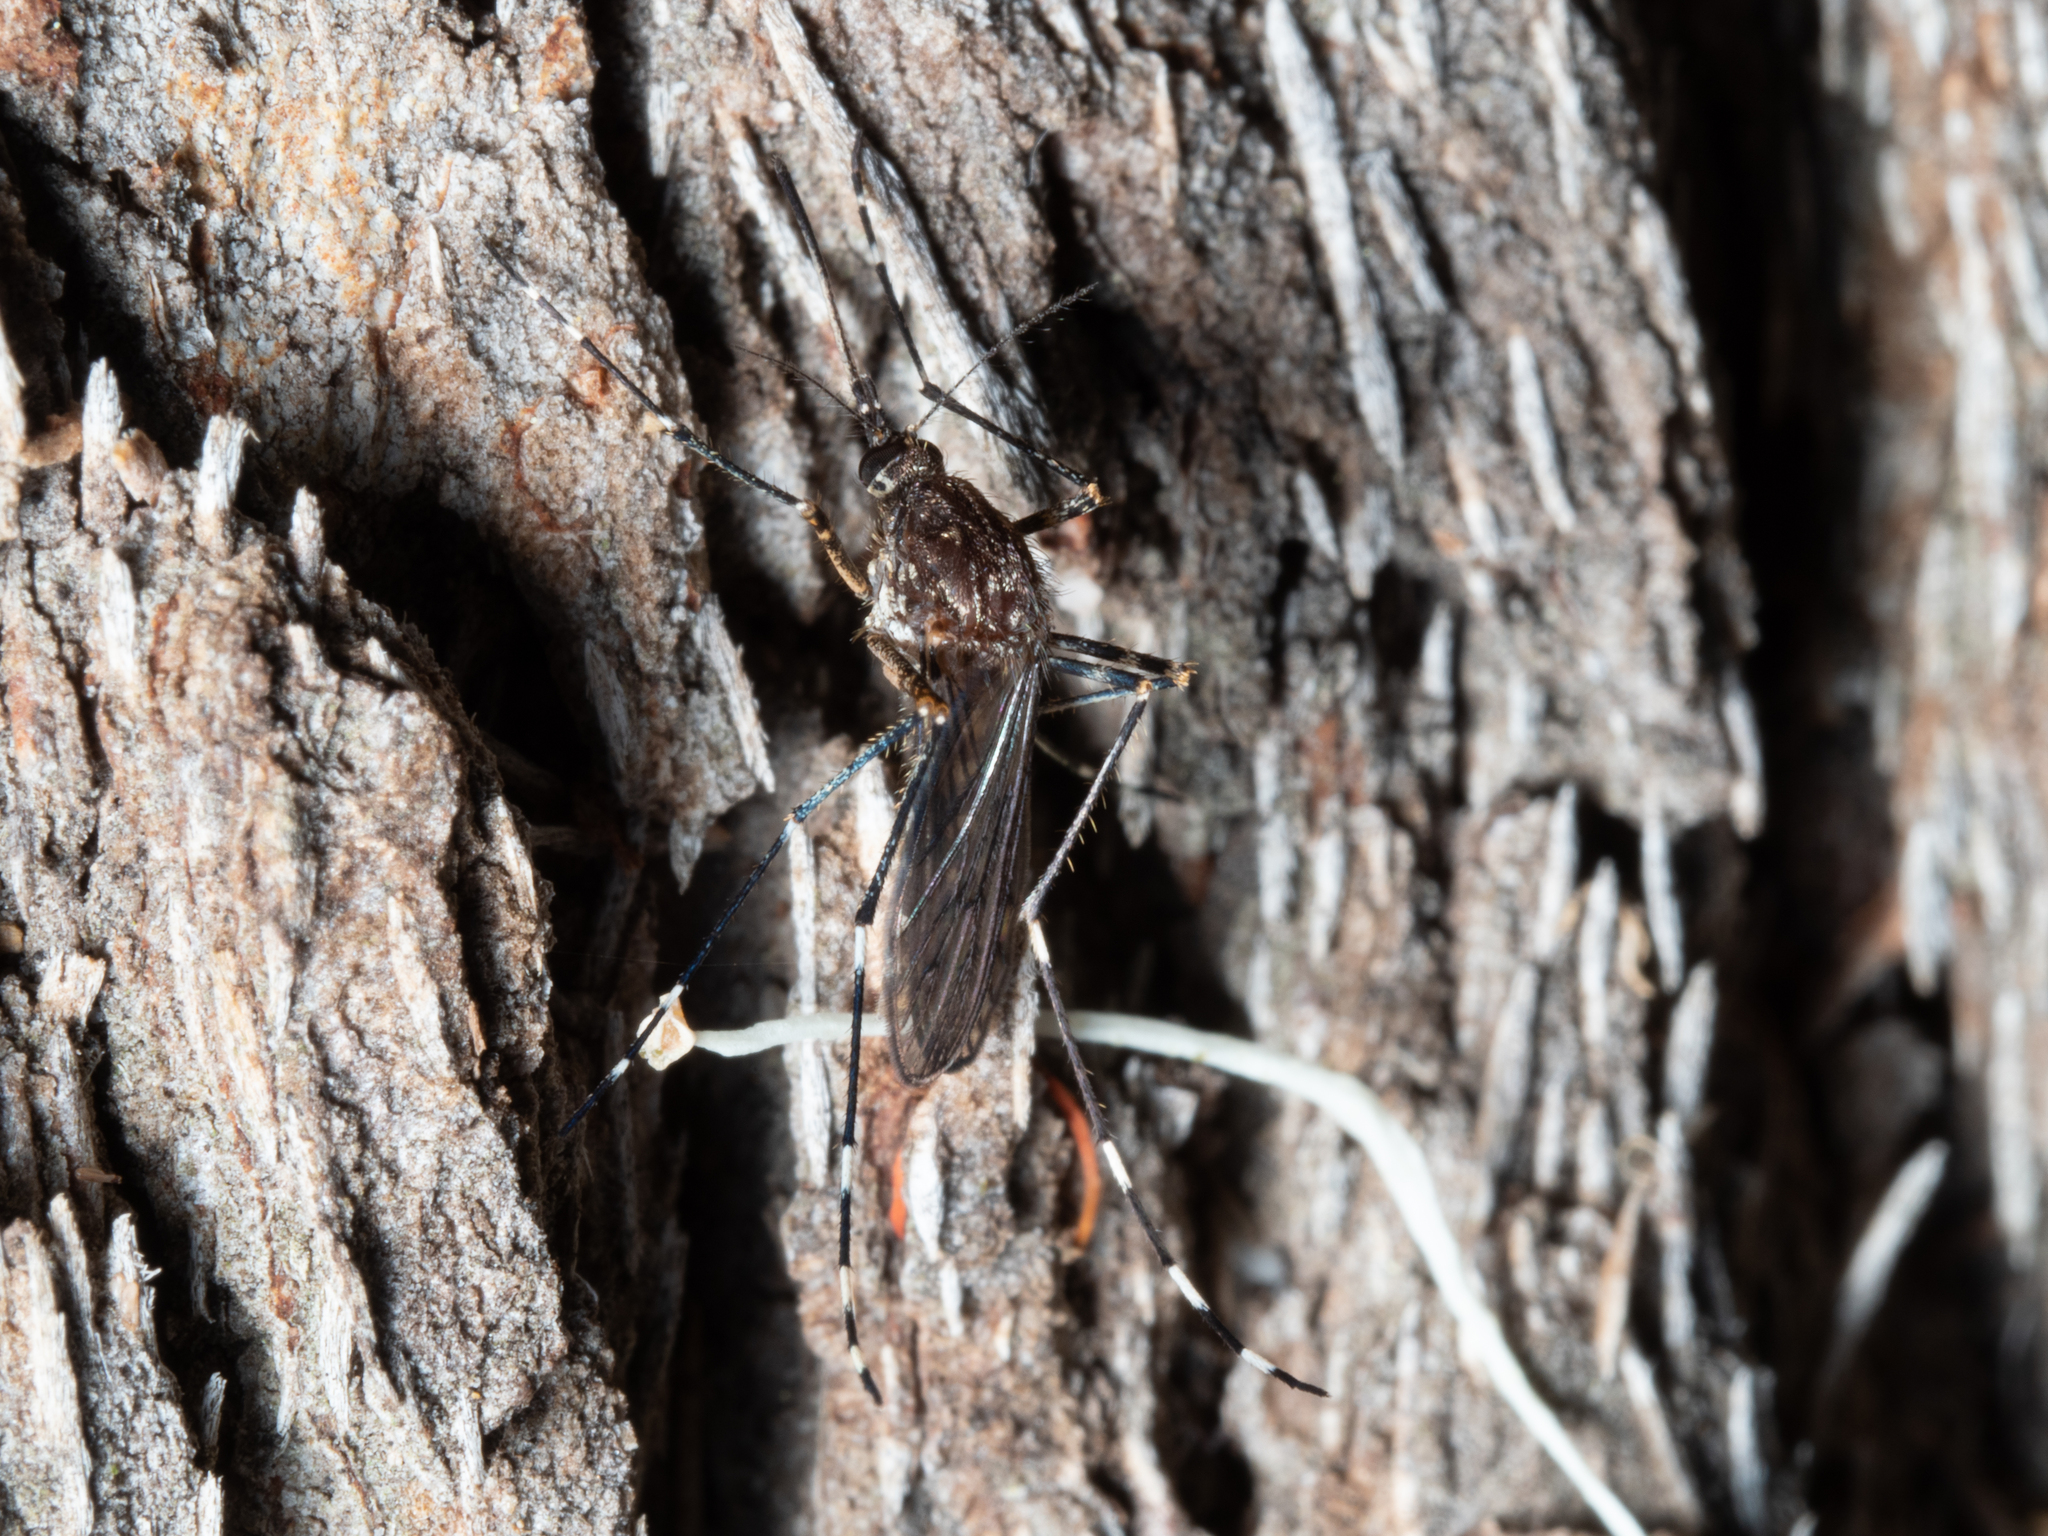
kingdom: Animalia
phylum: Arthropoda
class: Insecta
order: Diptera
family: Culicidae
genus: Aedes
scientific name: Aedes alboannulatus
